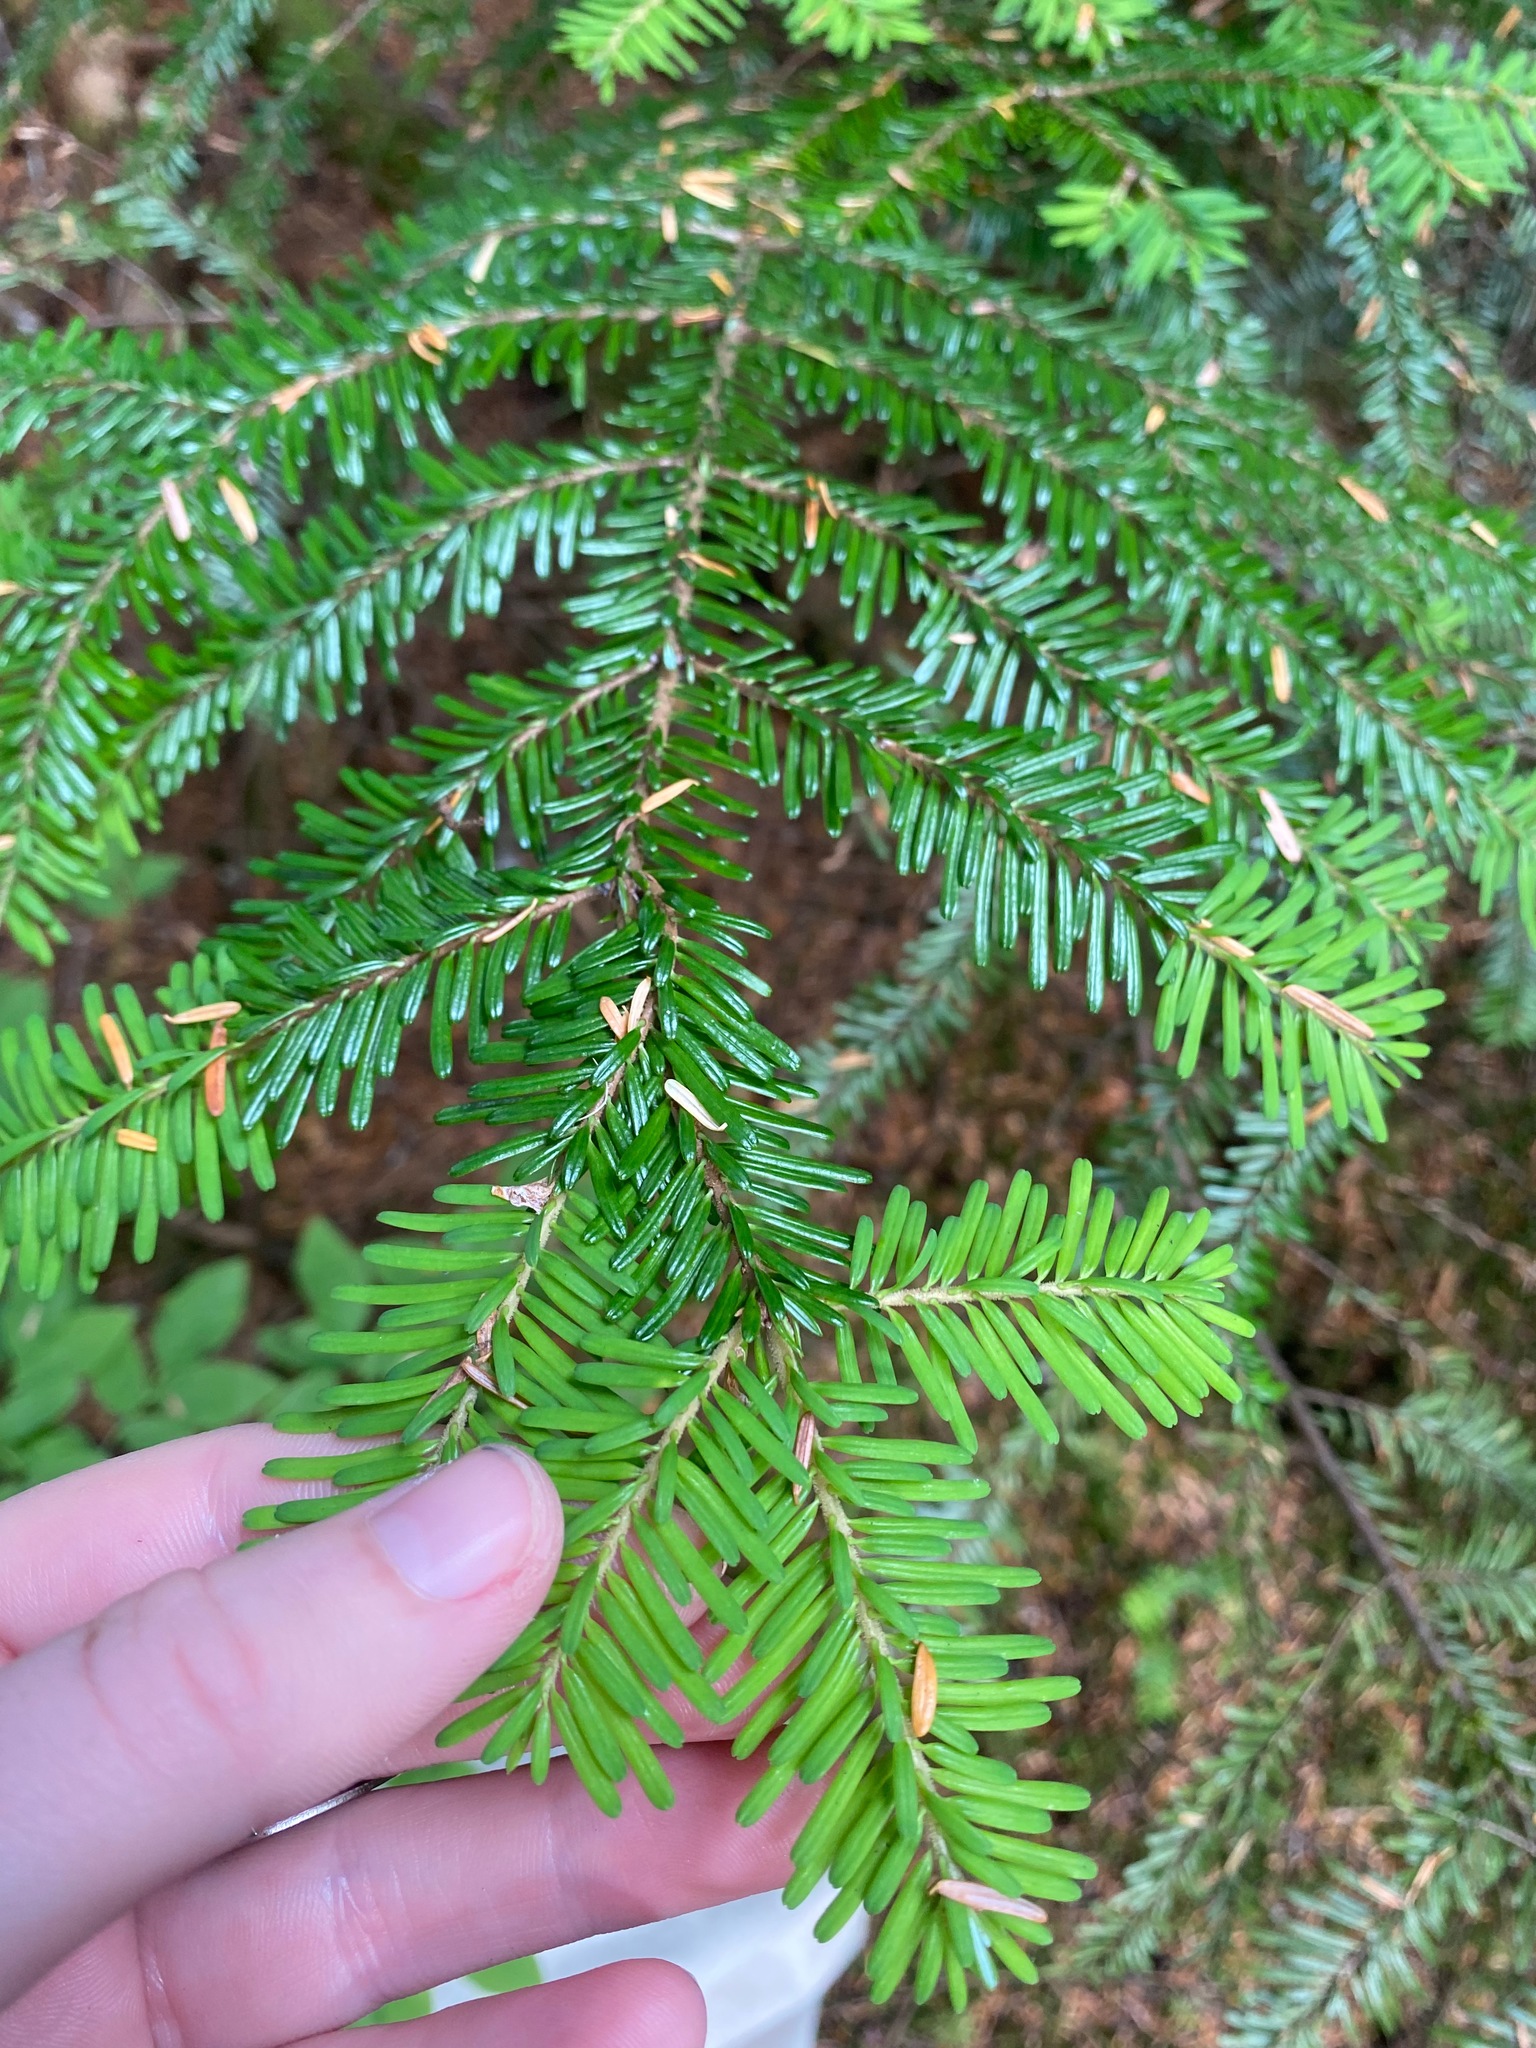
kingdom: Plantae
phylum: Tracheophyta
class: Pinopsida
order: Pinales
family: Pinaceae
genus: Abies
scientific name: Abies amabilis
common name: Pacific silver fir
